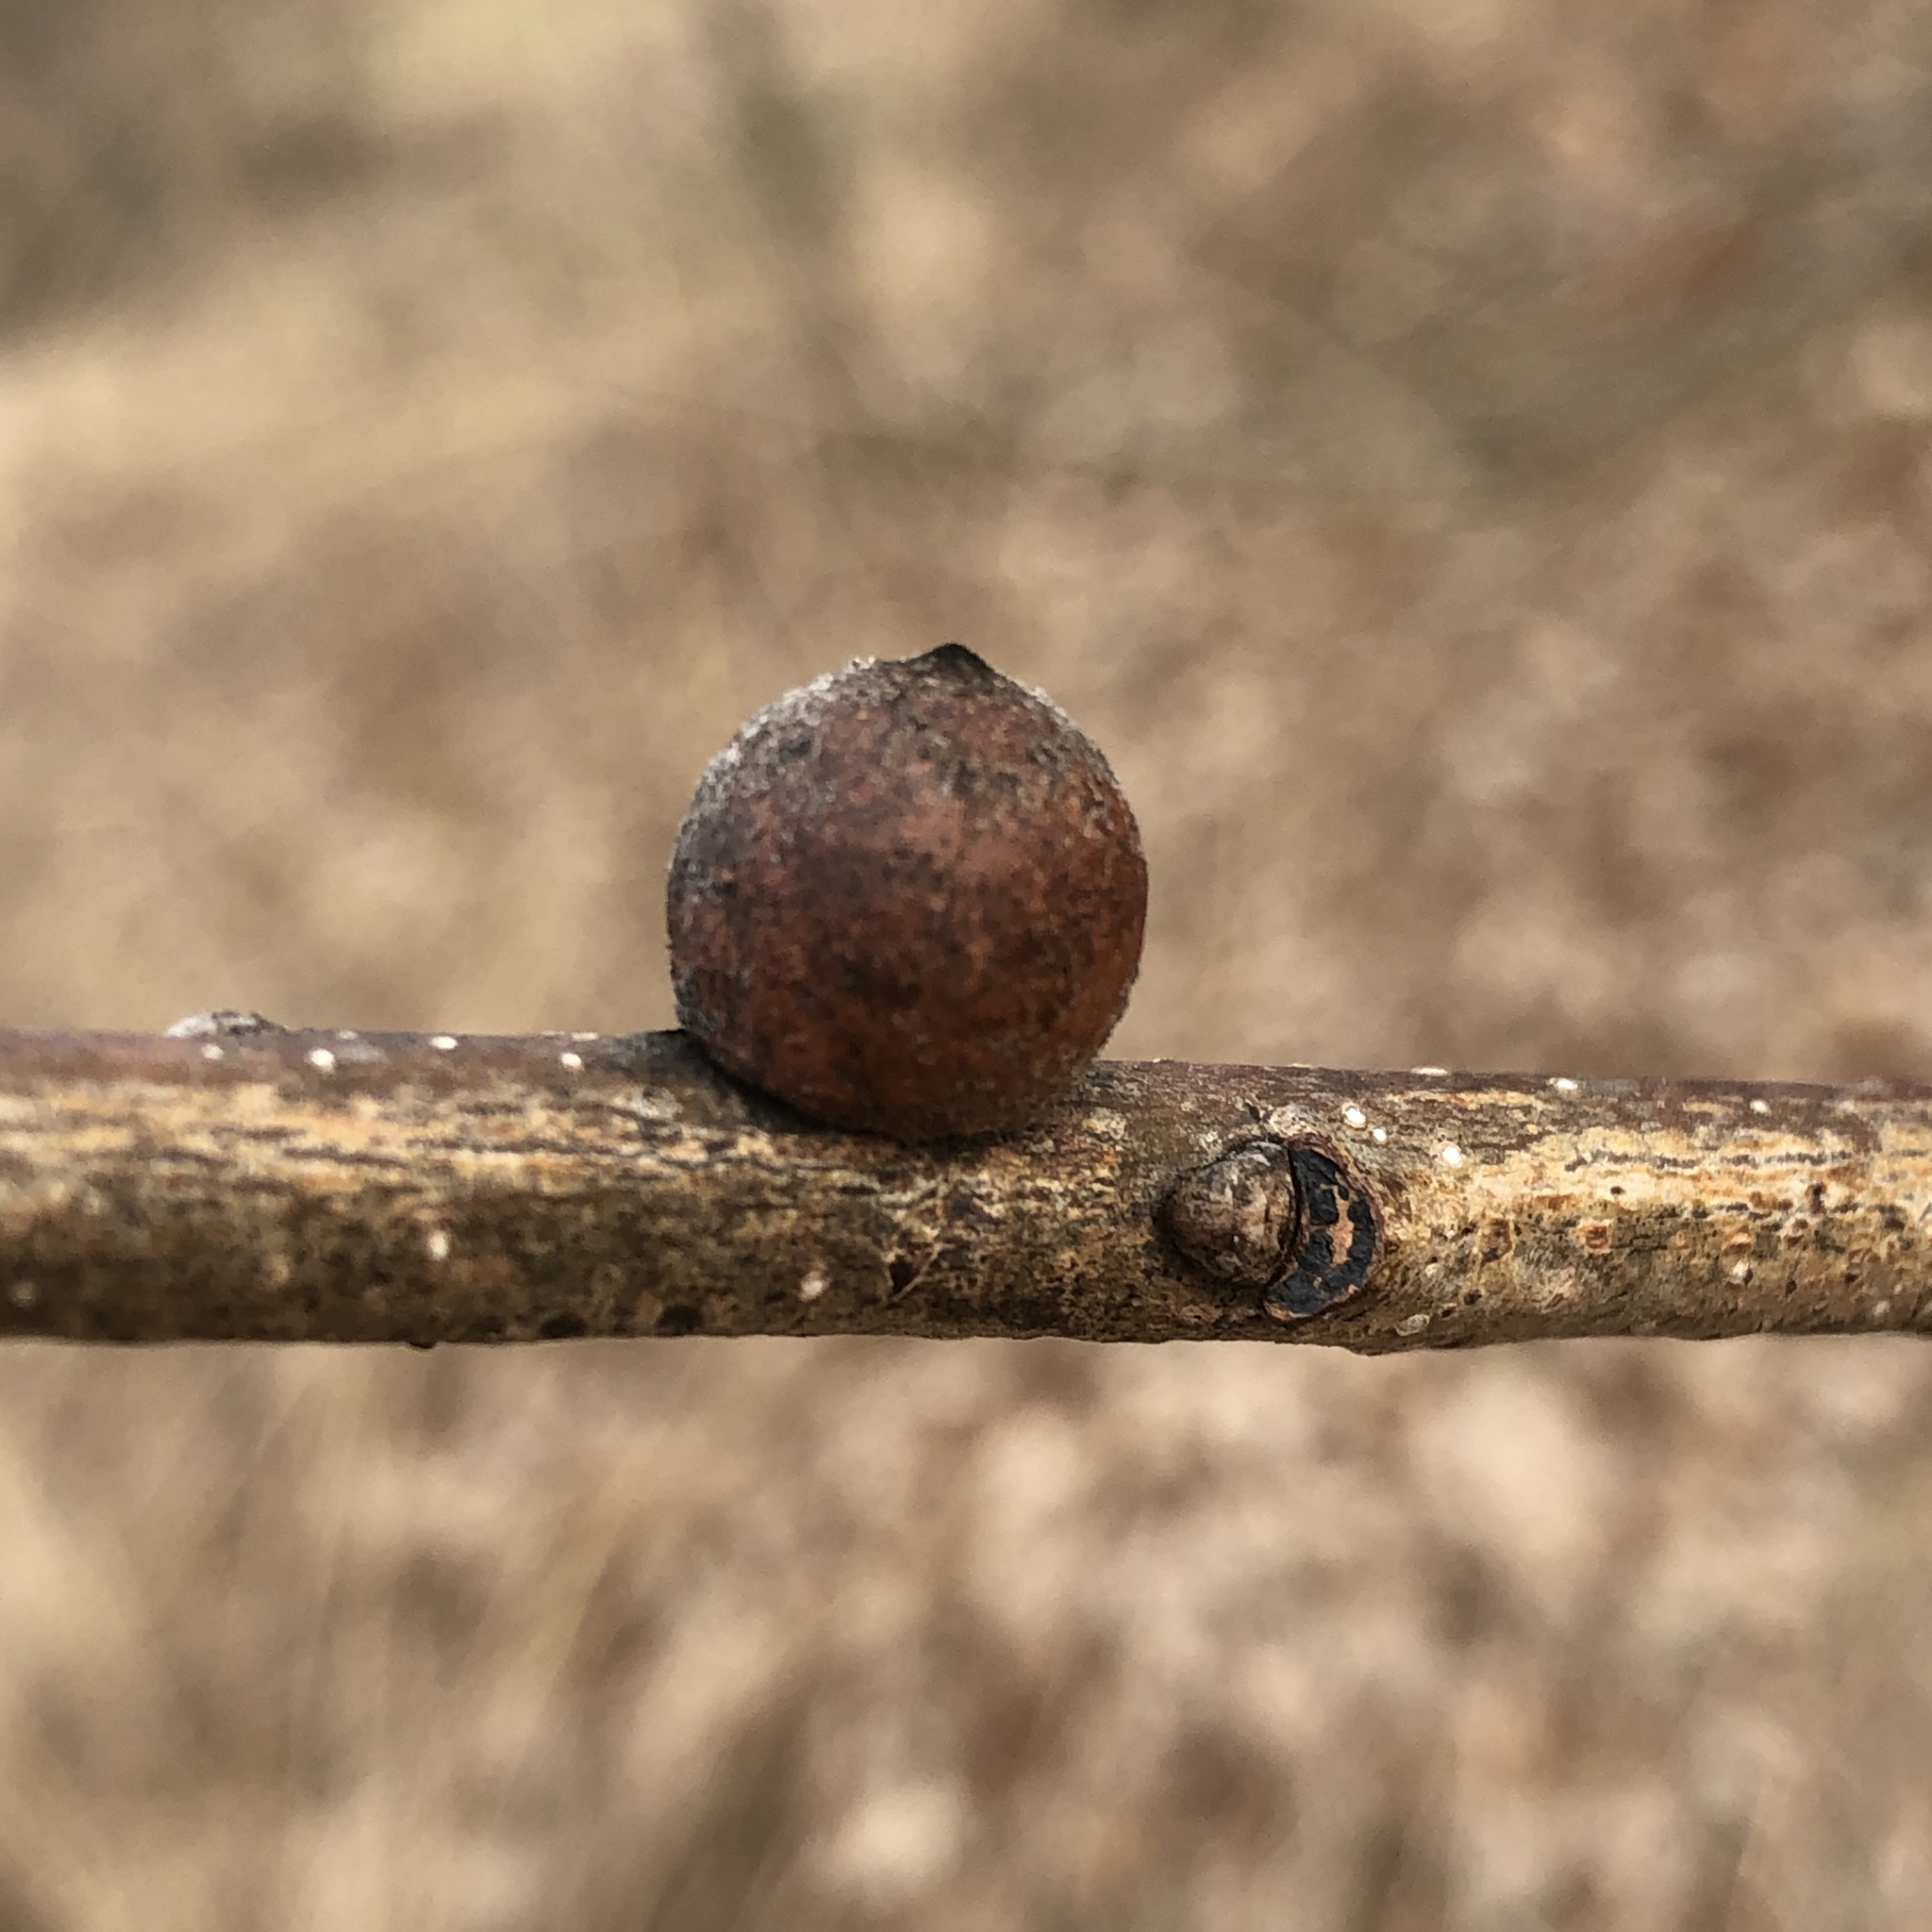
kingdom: Animalia
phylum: Arthropoda
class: Insecta
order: Hymenoptera
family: Cynipidae
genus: Disholcaspis
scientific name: Disholcaspis
